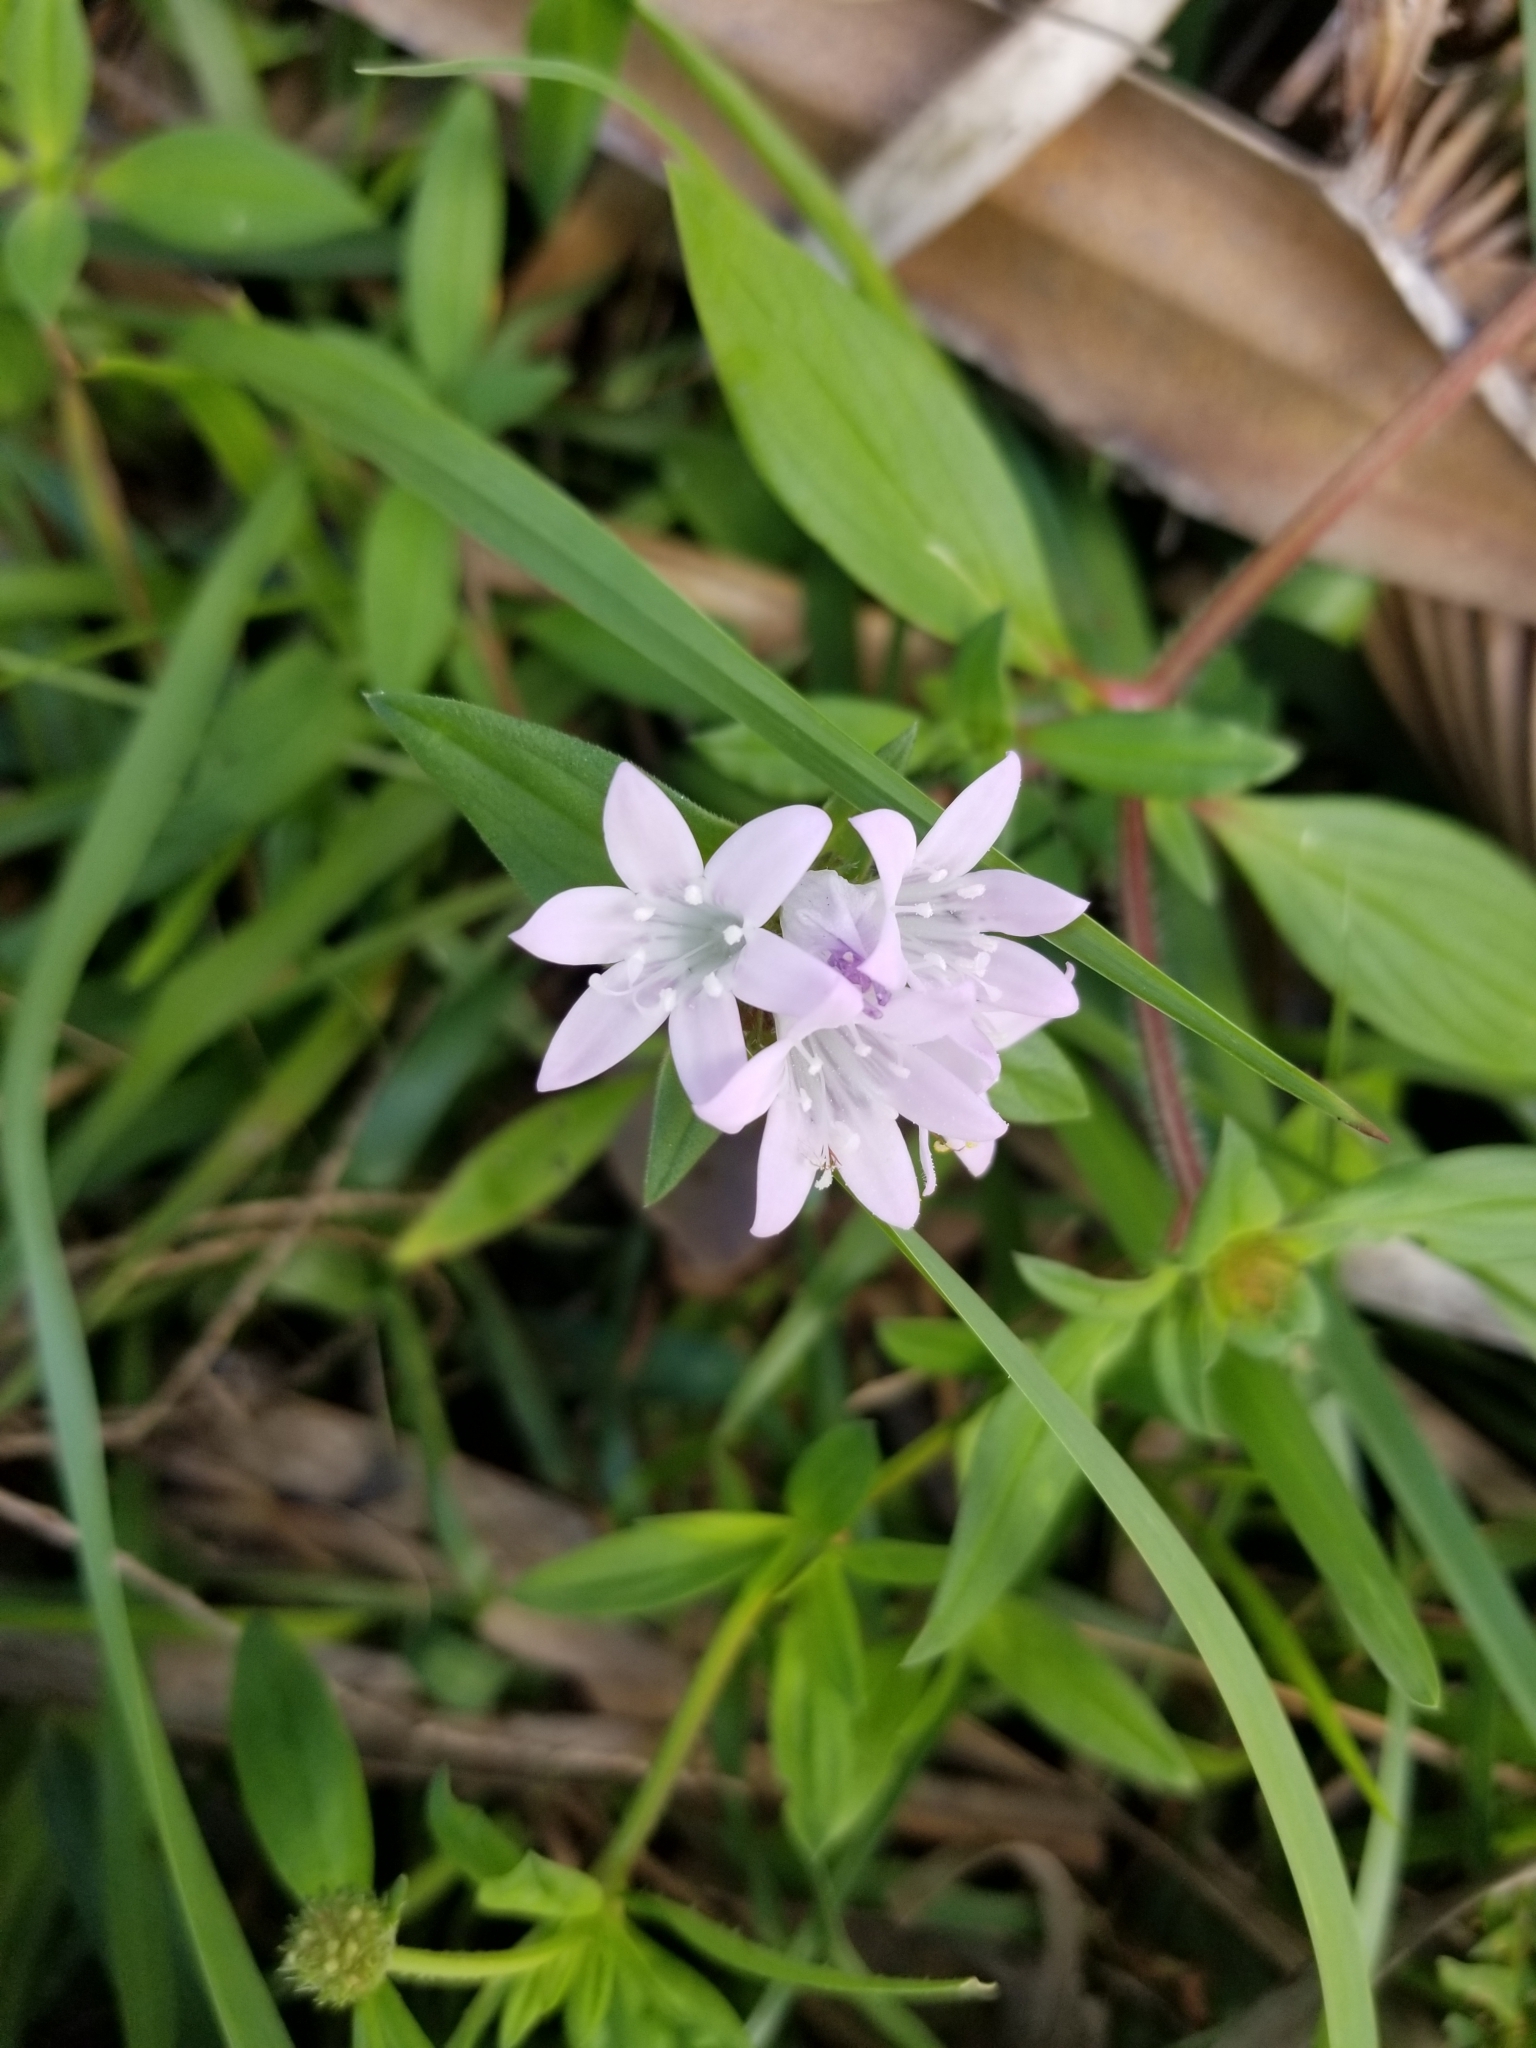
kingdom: Plantae
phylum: Tracheophyta
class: Magnoliopsida
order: Gentianales
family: Rubiaceae
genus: Richardia
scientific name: Richardia grandiflora
